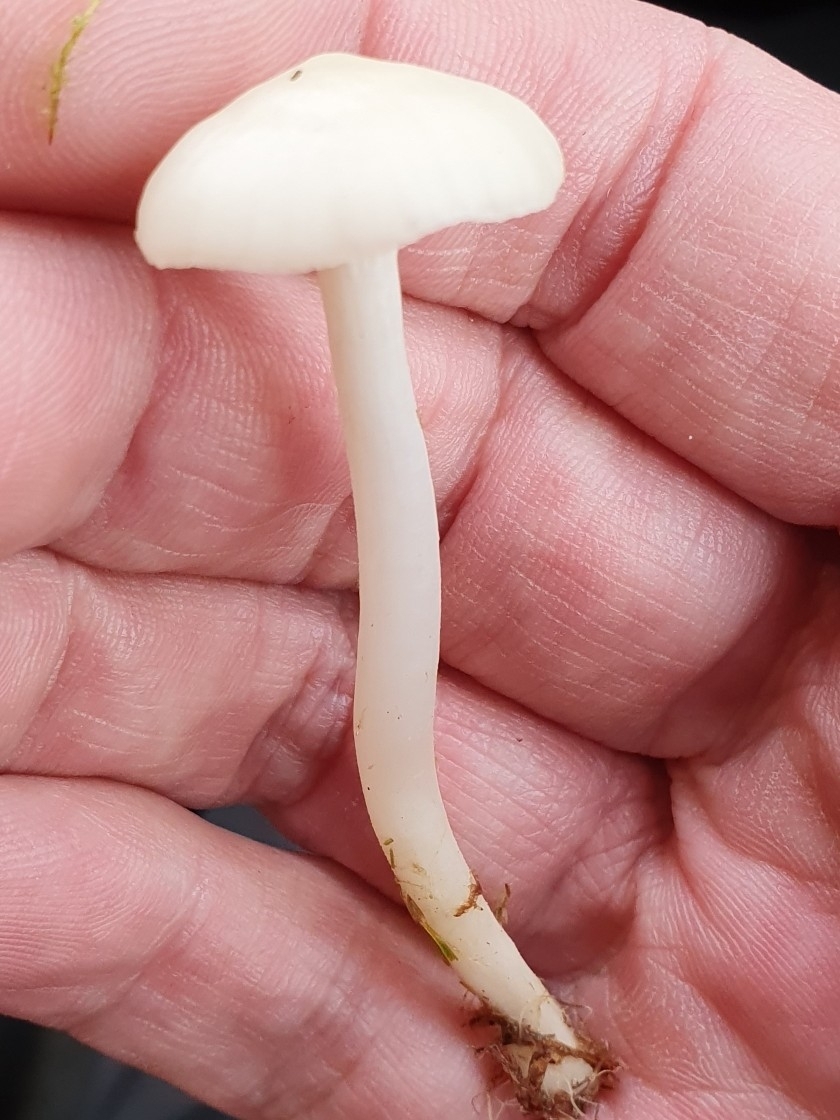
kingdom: Fungi
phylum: Basidiomycota
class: Agaricomycetes
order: Agaricales
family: Hygrophoraceae
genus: Cuphophyllus
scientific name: Cuphophyllus virgineus
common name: Snowy waxcap
